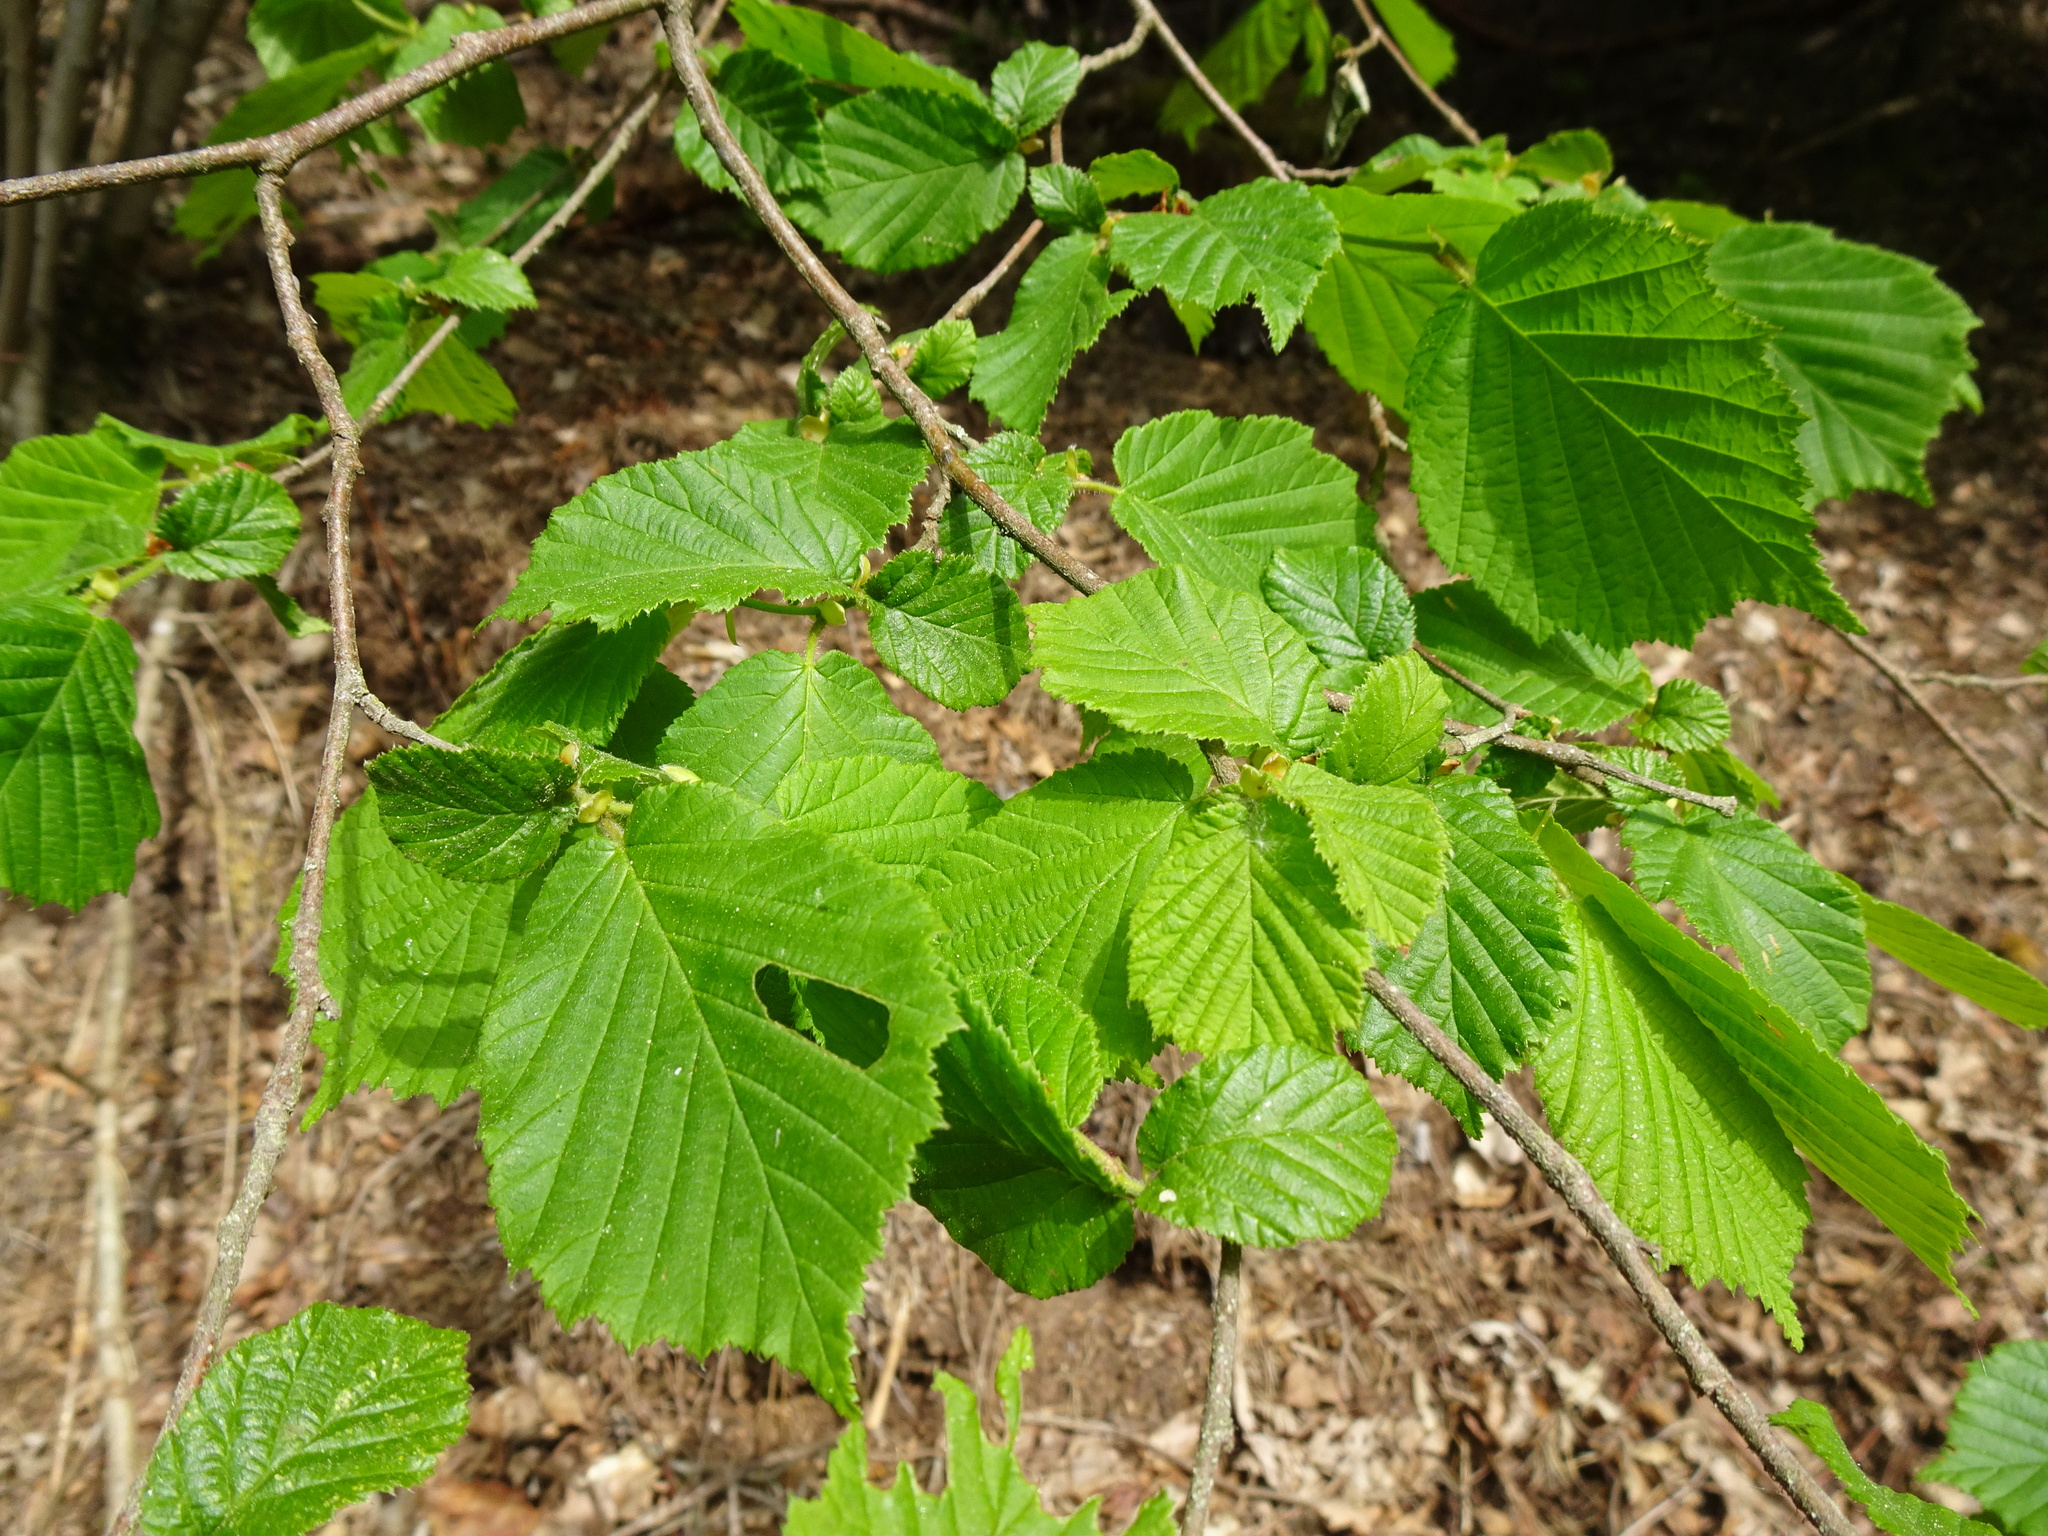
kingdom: Plantae
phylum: Tracheophyta
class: Magnoliopsida
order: Fagales
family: Betulaceae
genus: Corylus
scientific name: Corylus avellana
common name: European hazel
